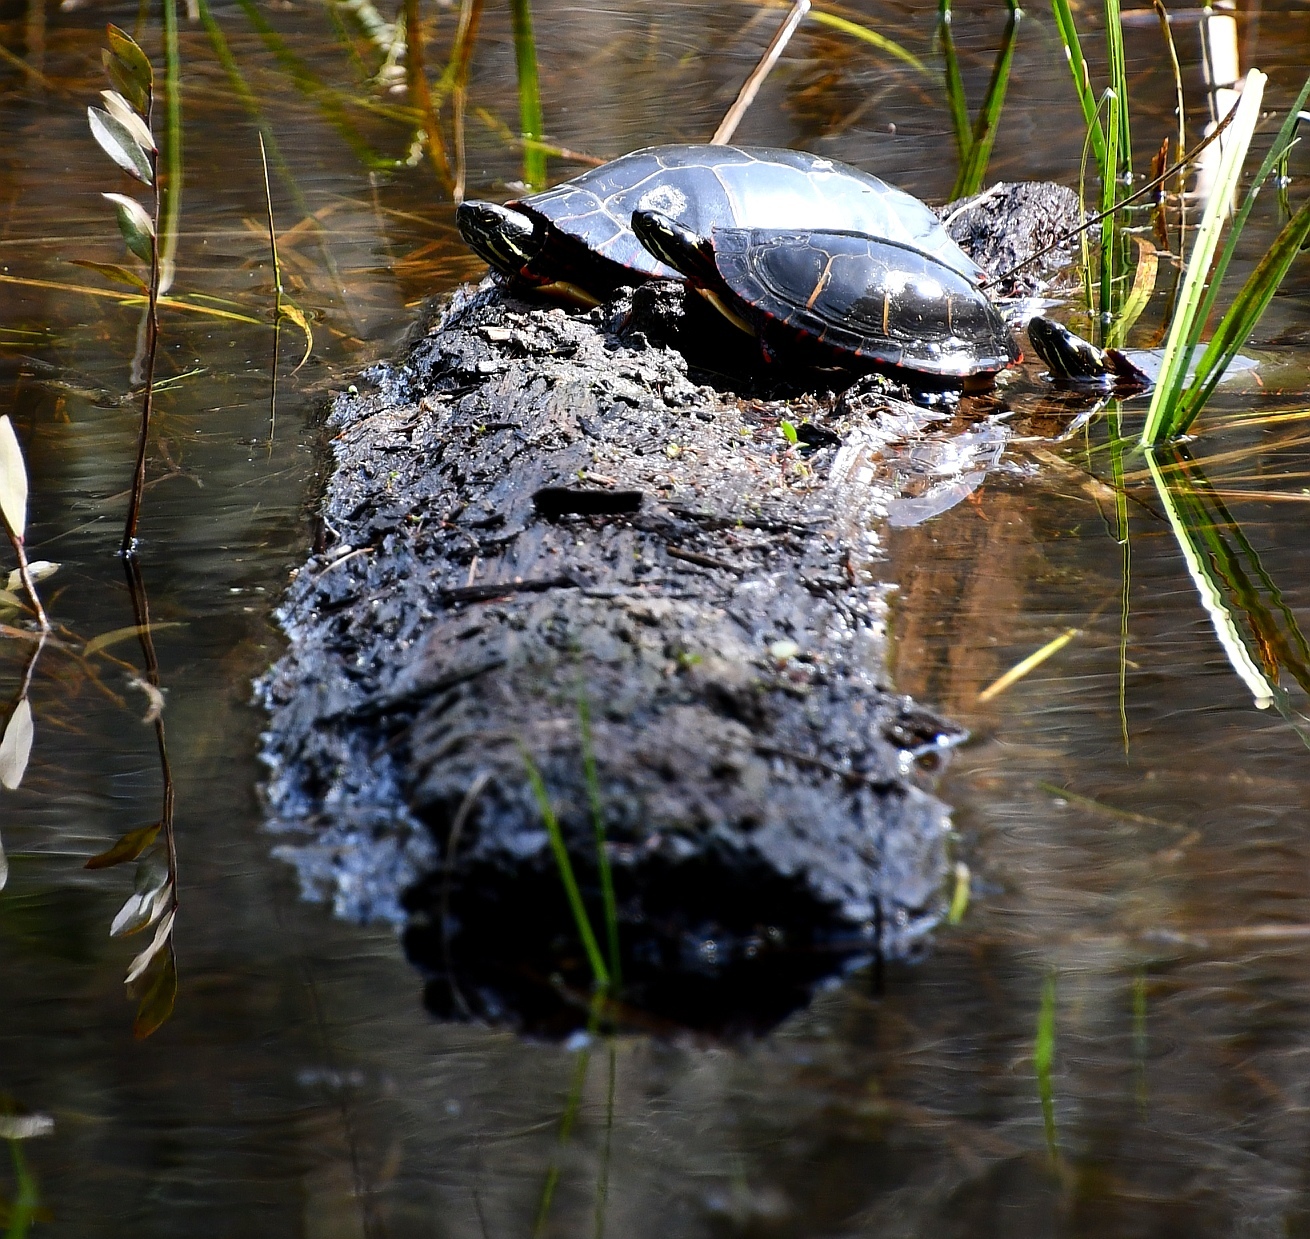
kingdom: Animalia
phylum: Chordata
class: Testudines
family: Emydidae
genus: Chrysemys
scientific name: Chrysemys picta
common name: Painted turtle
